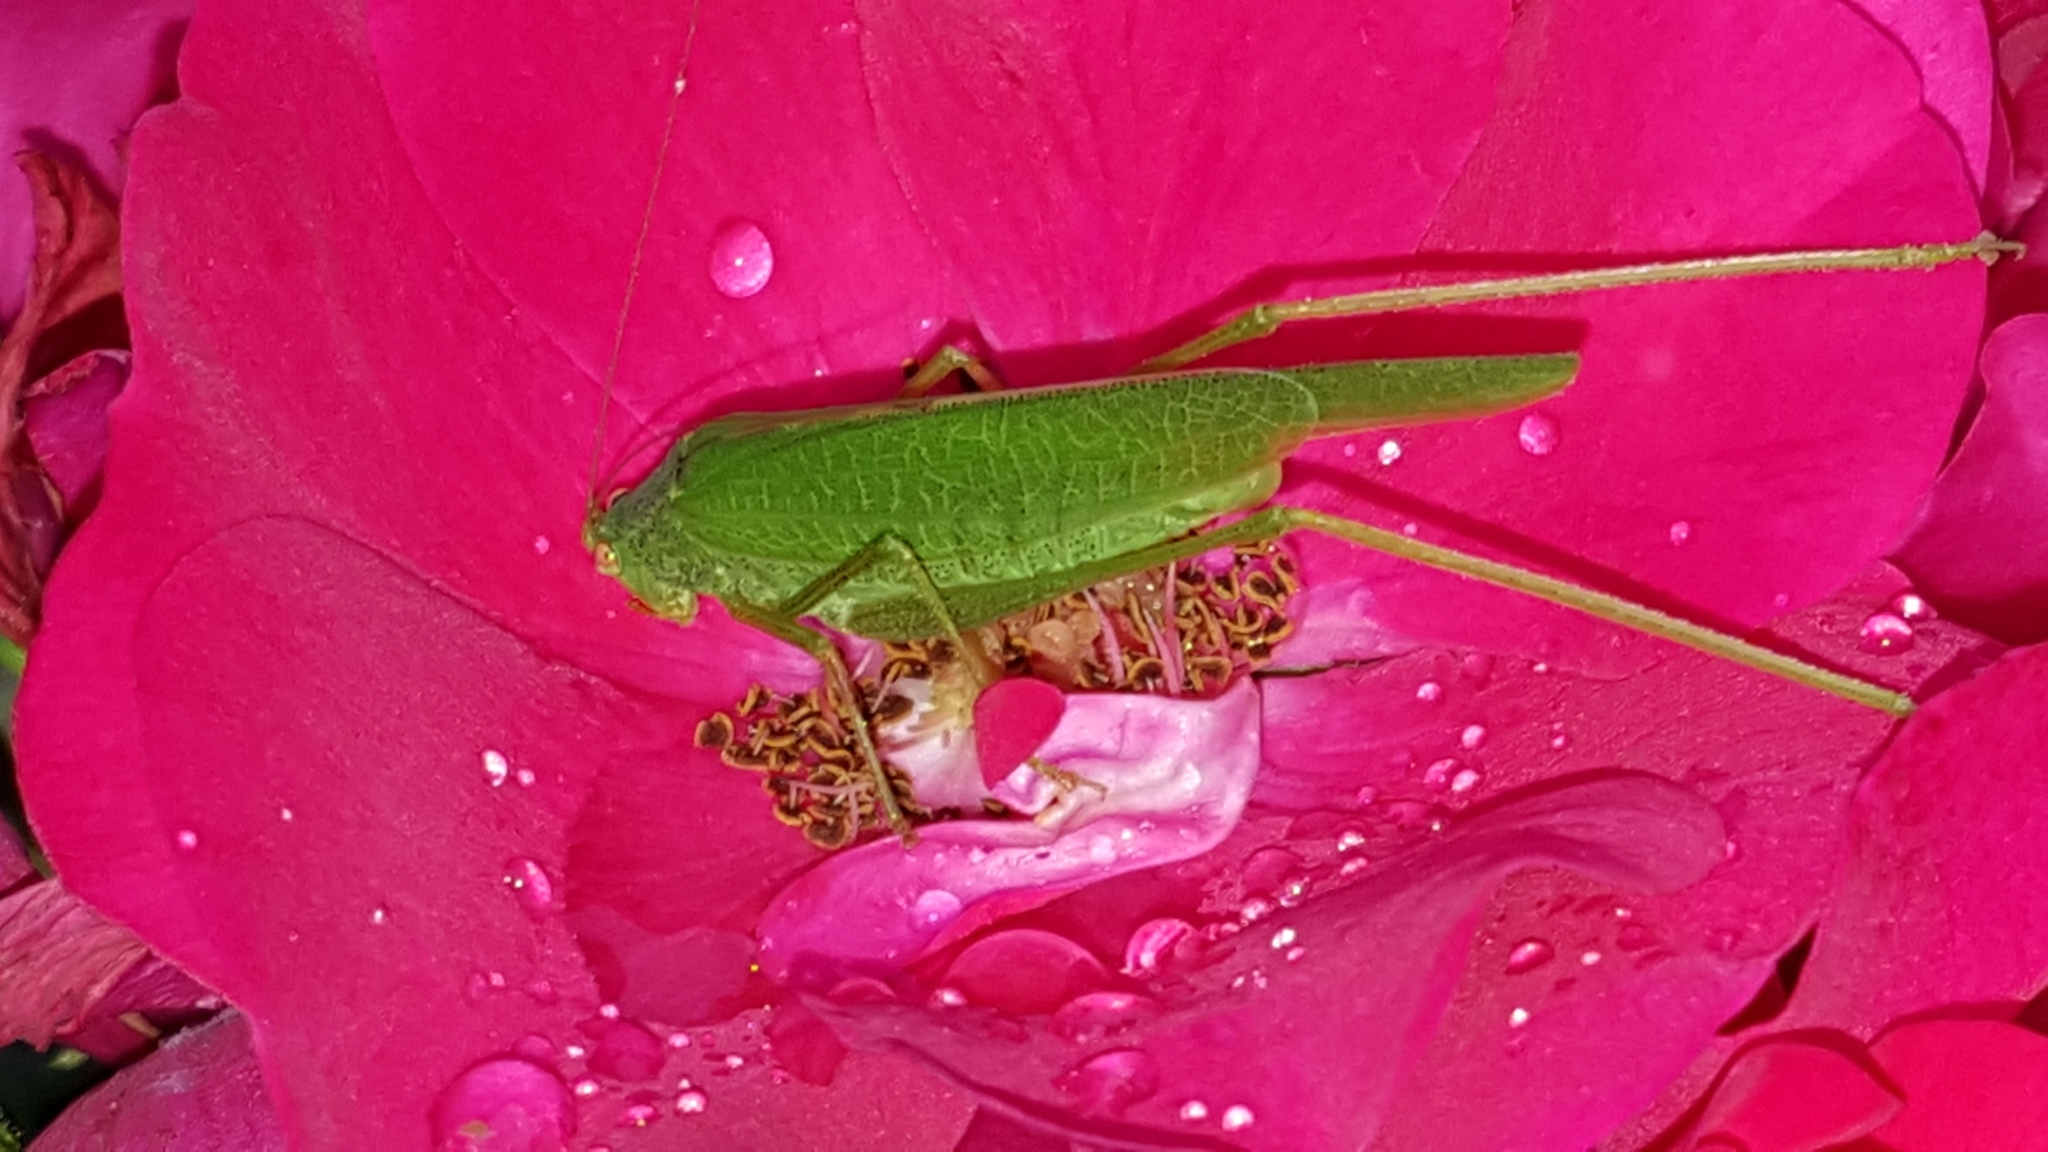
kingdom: Animalia
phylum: Arthropoda
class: Insecta
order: Orthoptera
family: Tettigoniidae
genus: Phaneroptera
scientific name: Phaneroptera nana
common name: Southern sickle bush-cricket
